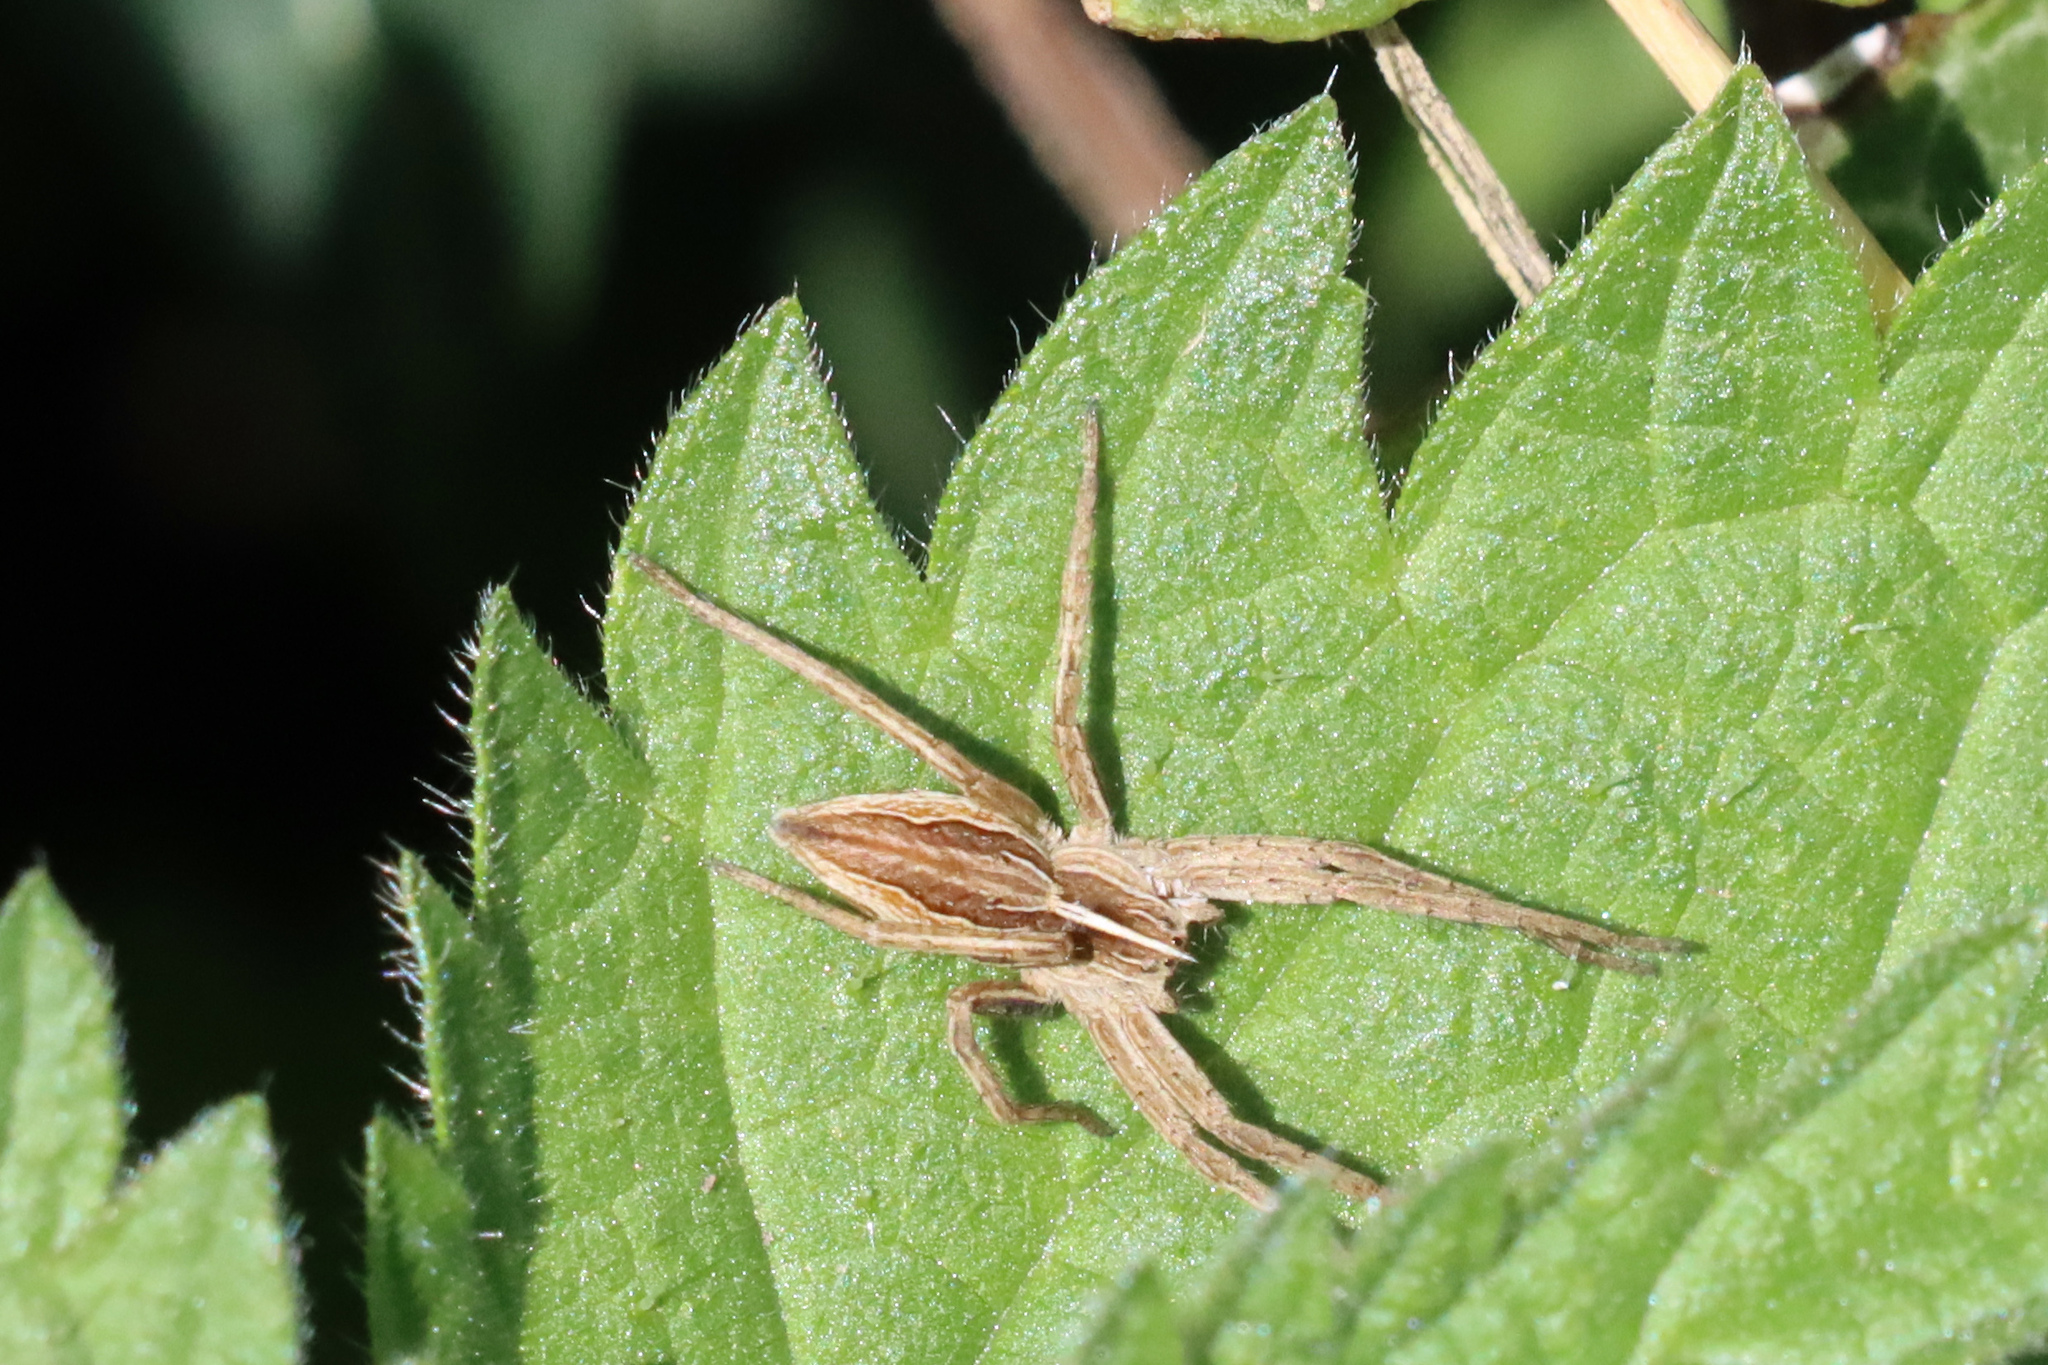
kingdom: Animalia
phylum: Arthropoda
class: Arachnida
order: Araneae
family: Pisauridae
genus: Pisaura
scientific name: Pisaura mirabilis
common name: Tent spider
